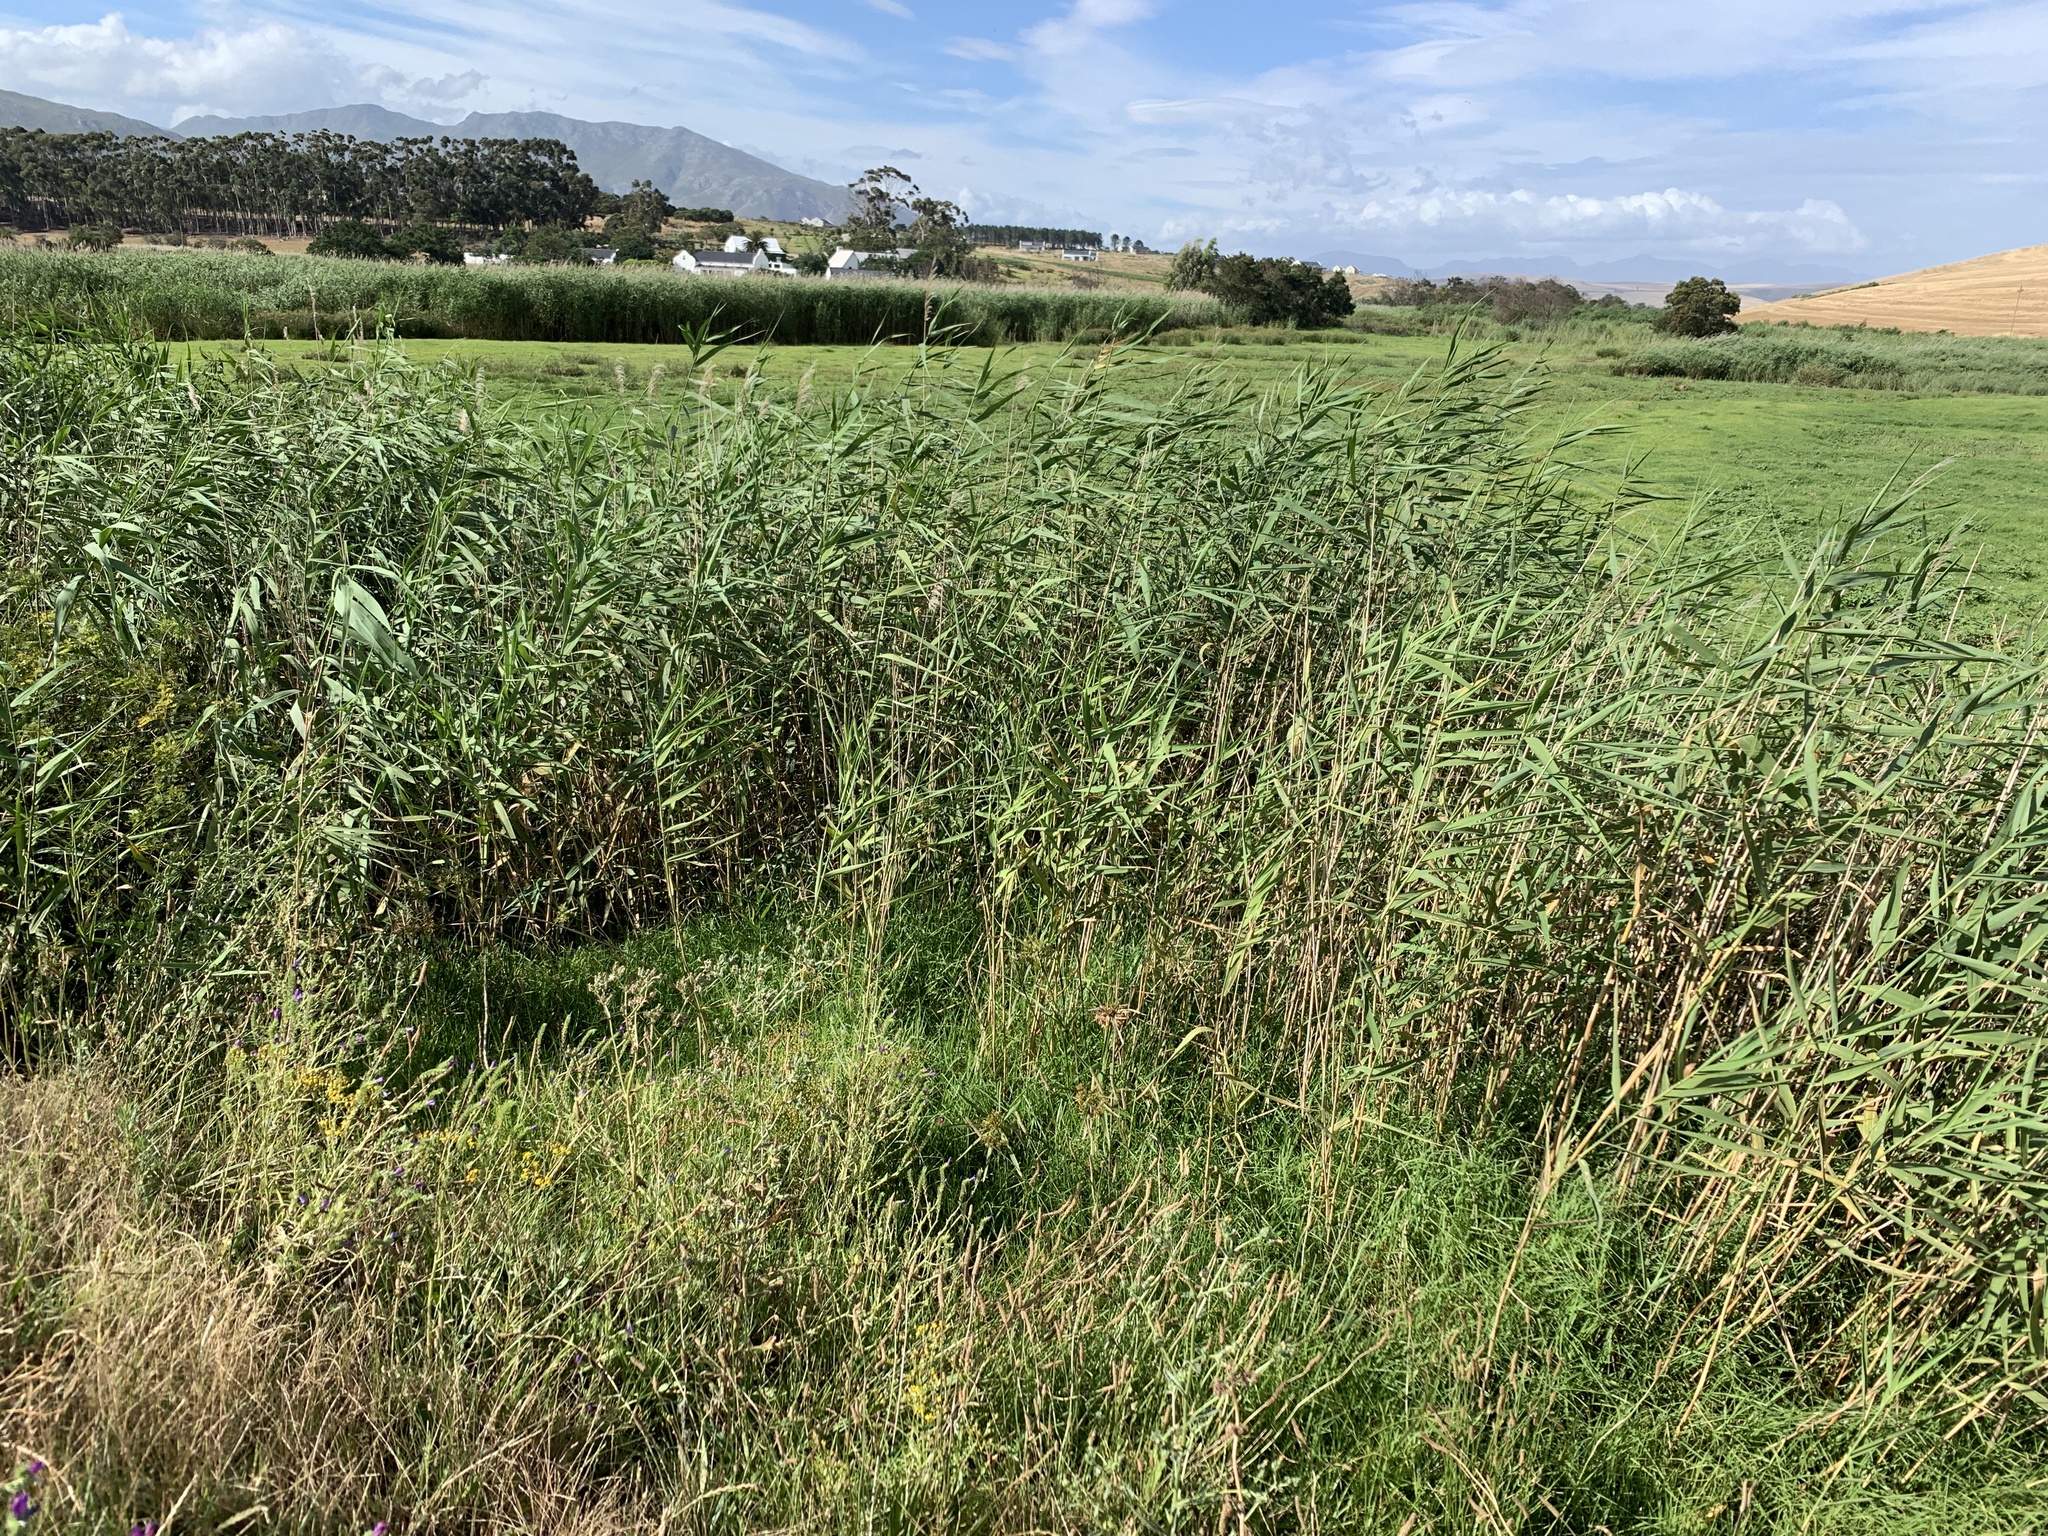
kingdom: Plantae
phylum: Tracheophyta
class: Liliopsida
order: Poales
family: Poaceae
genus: Phragmites
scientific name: Phragmites australis
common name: Common reed
